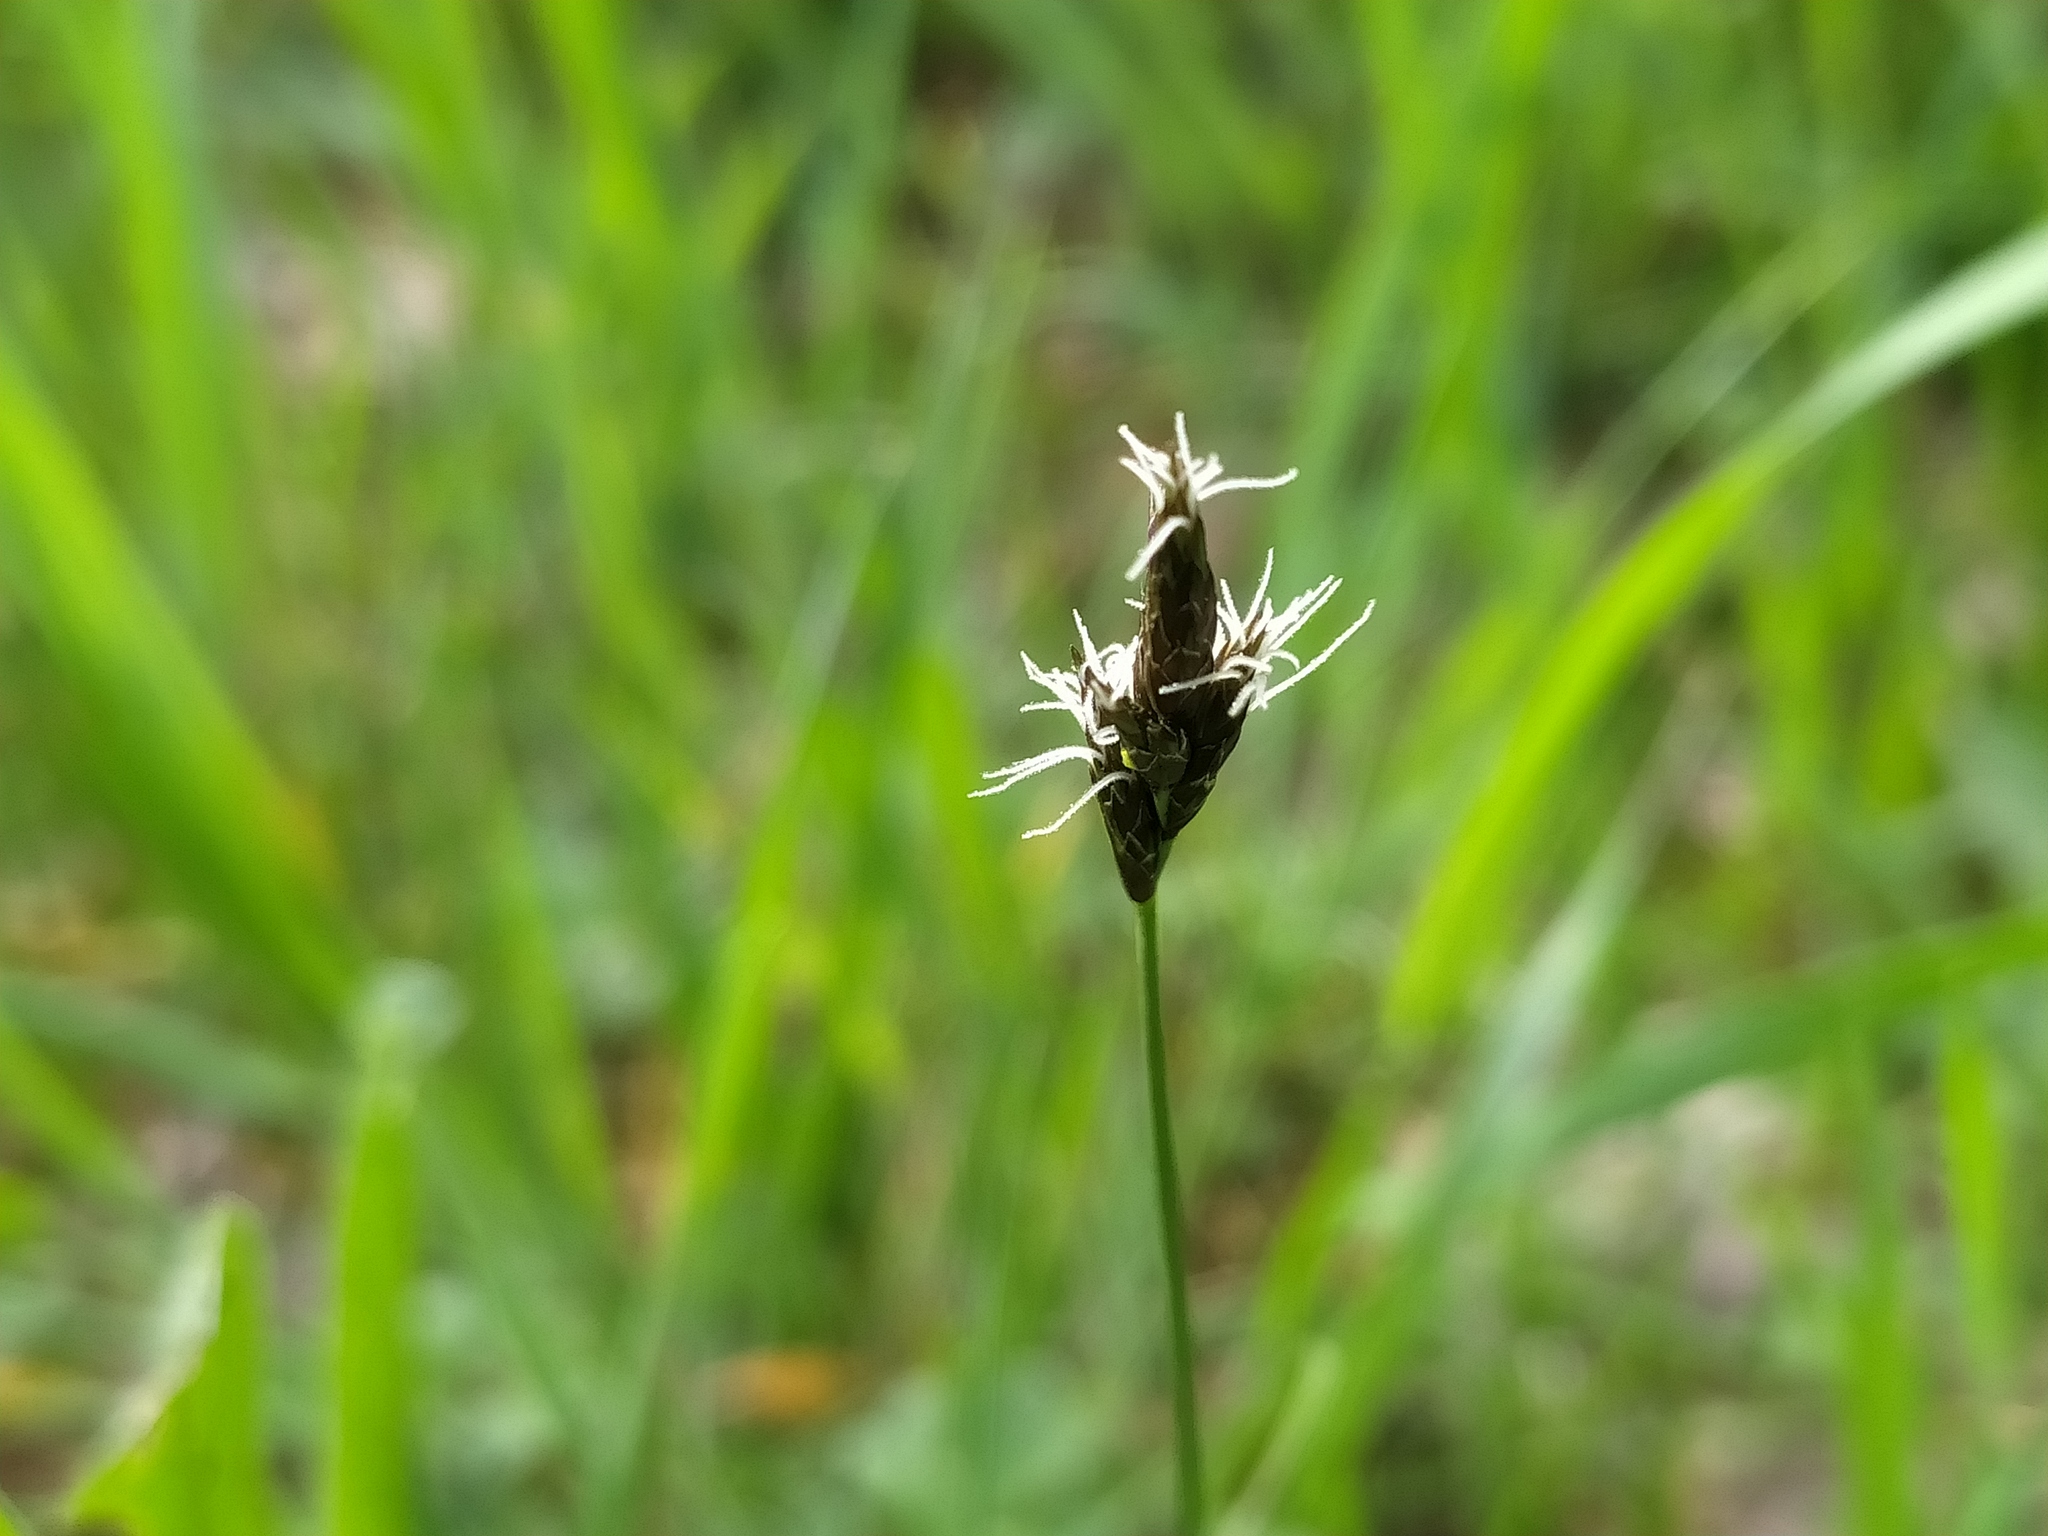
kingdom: Plantae
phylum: Tracheophyta
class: Liliopsida
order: Poales
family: Cyperaceae
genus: Carex
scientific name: Carex praecox
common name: Early sedge
